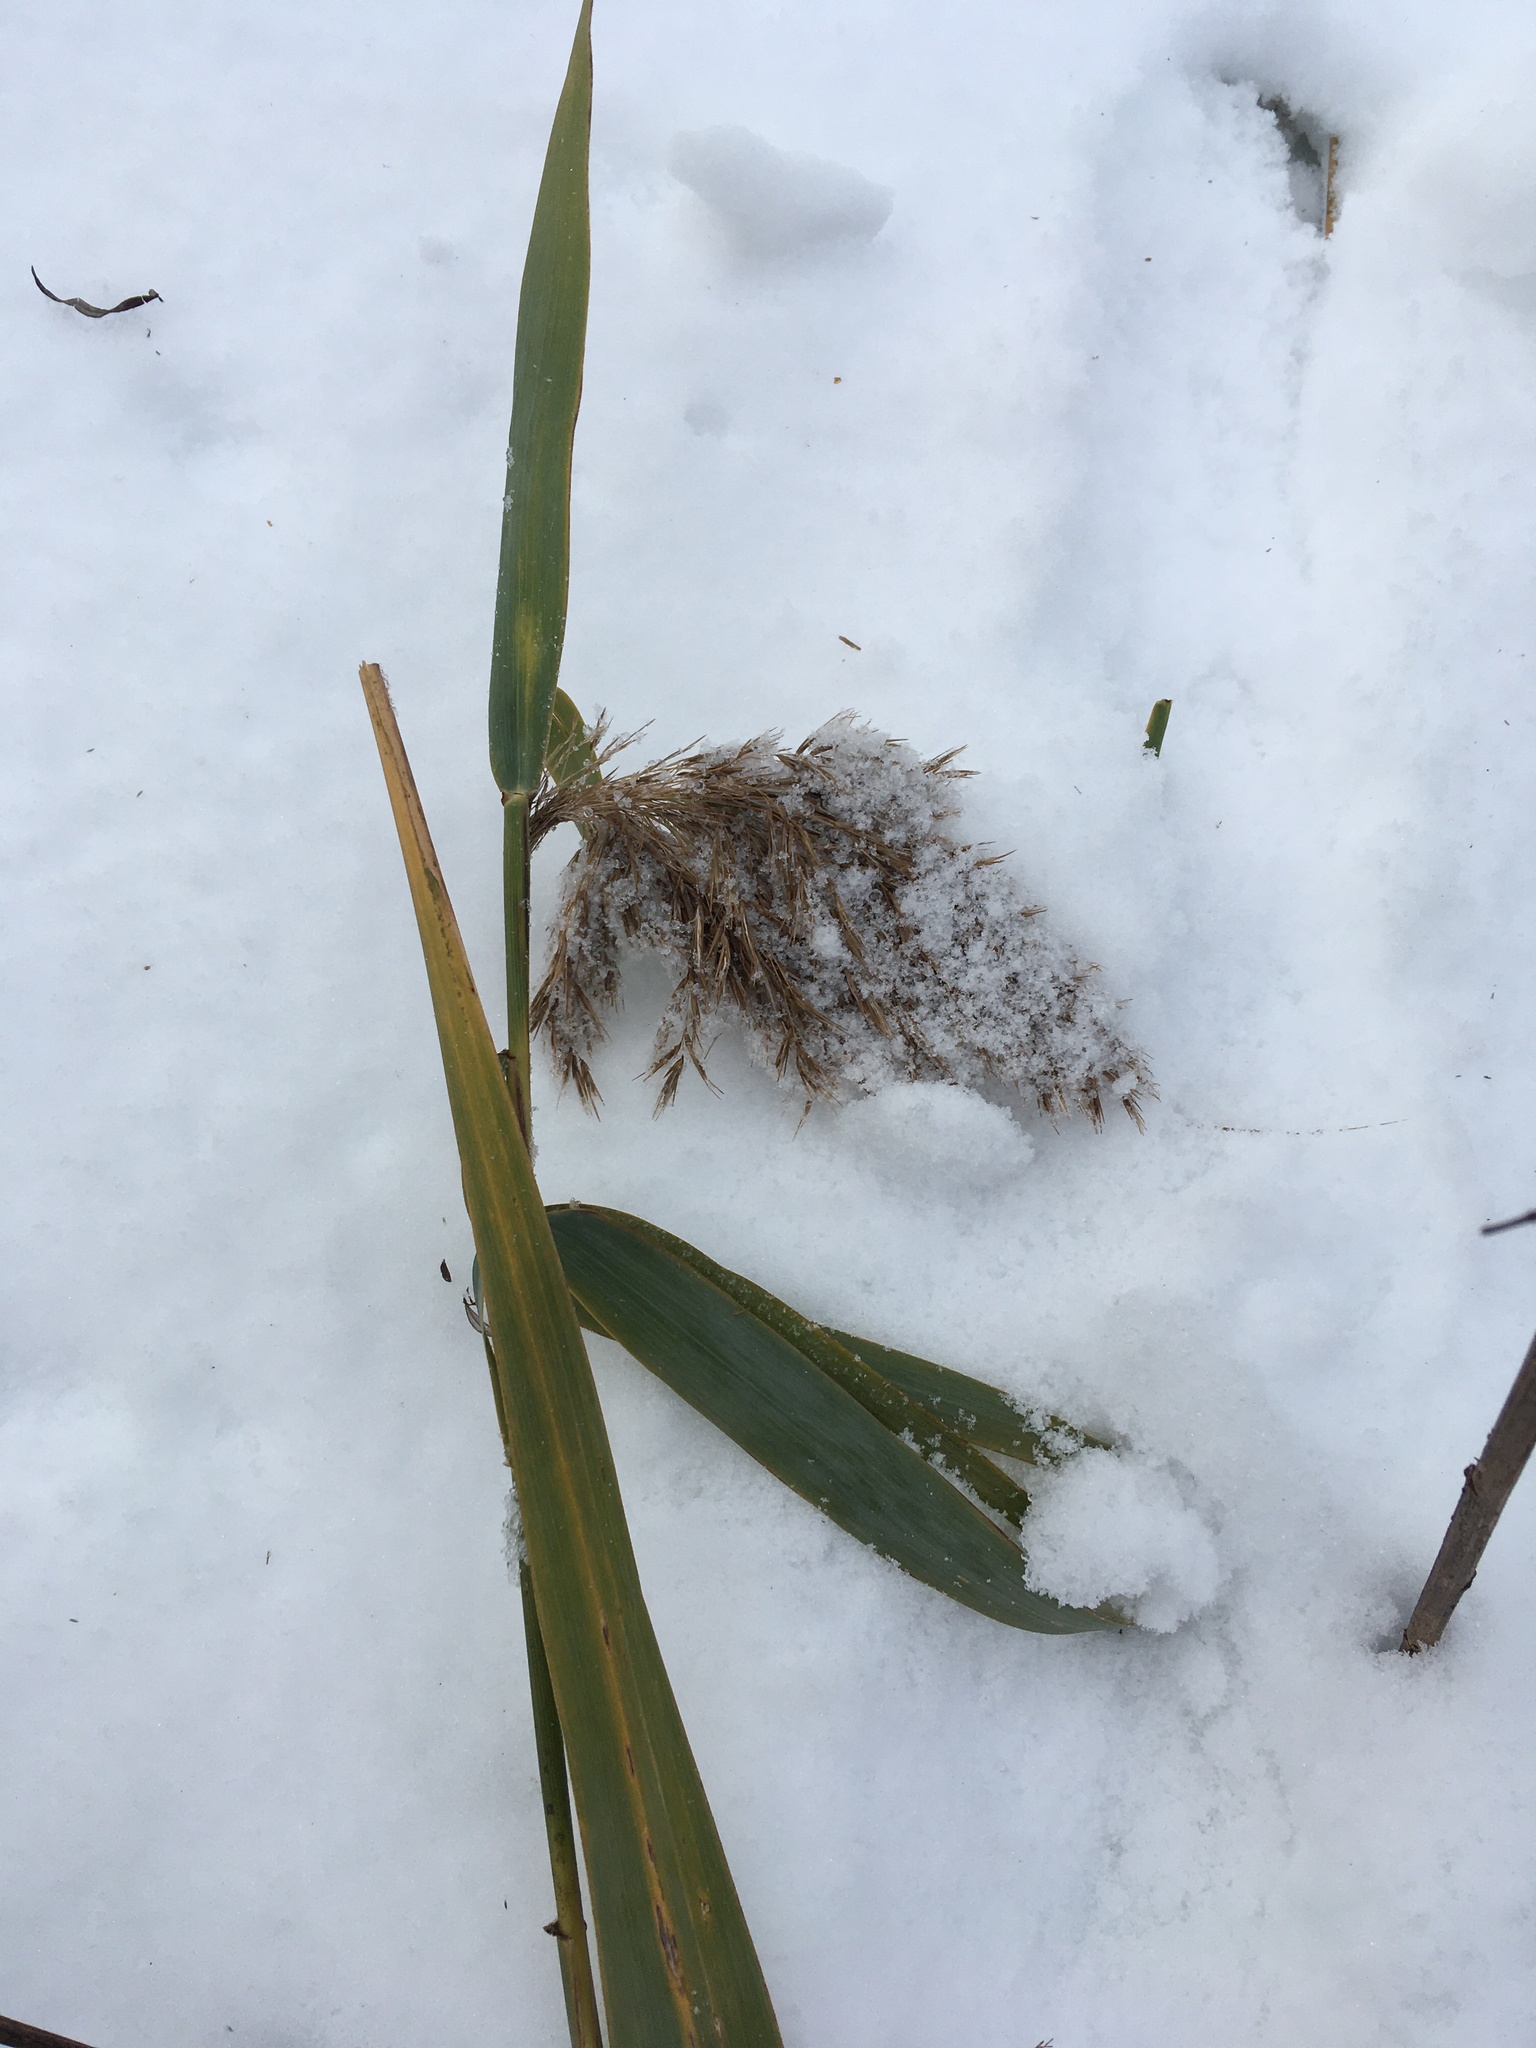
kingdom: Plantae
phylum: Tracheophyta
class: Liliopsida
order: Poales
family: Poaceae
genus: Phragmites
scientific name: Phragmites australis
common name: Common reed
